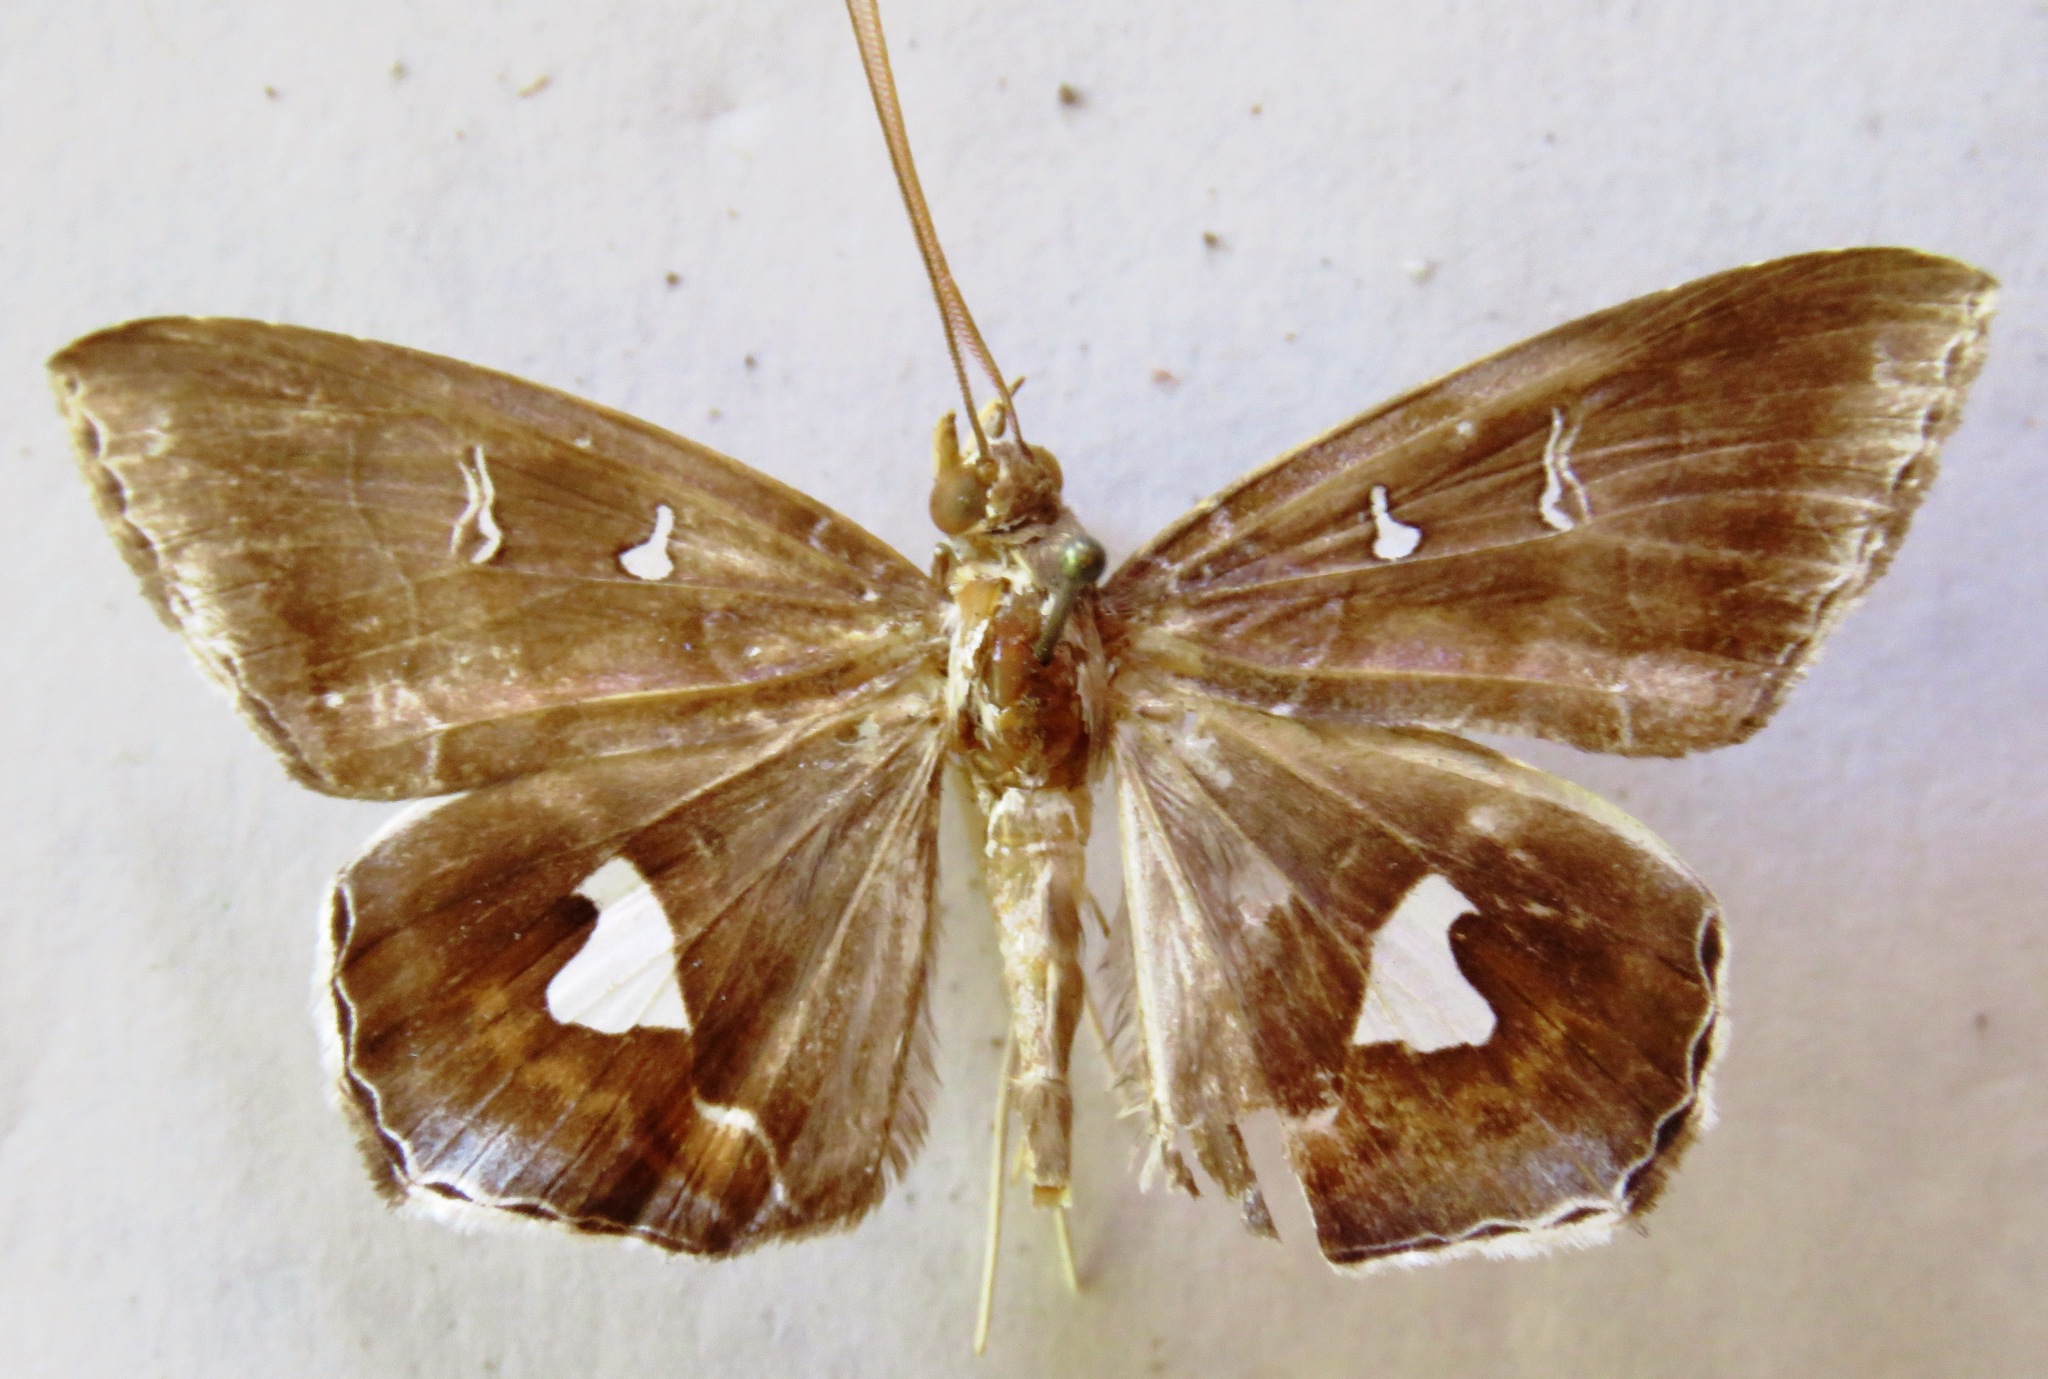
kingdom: Animalia
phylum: Arthropoda
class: Insecta
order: Lepidoptera
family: Erebidae
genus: Macrodes
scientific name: Macrodes cynara
